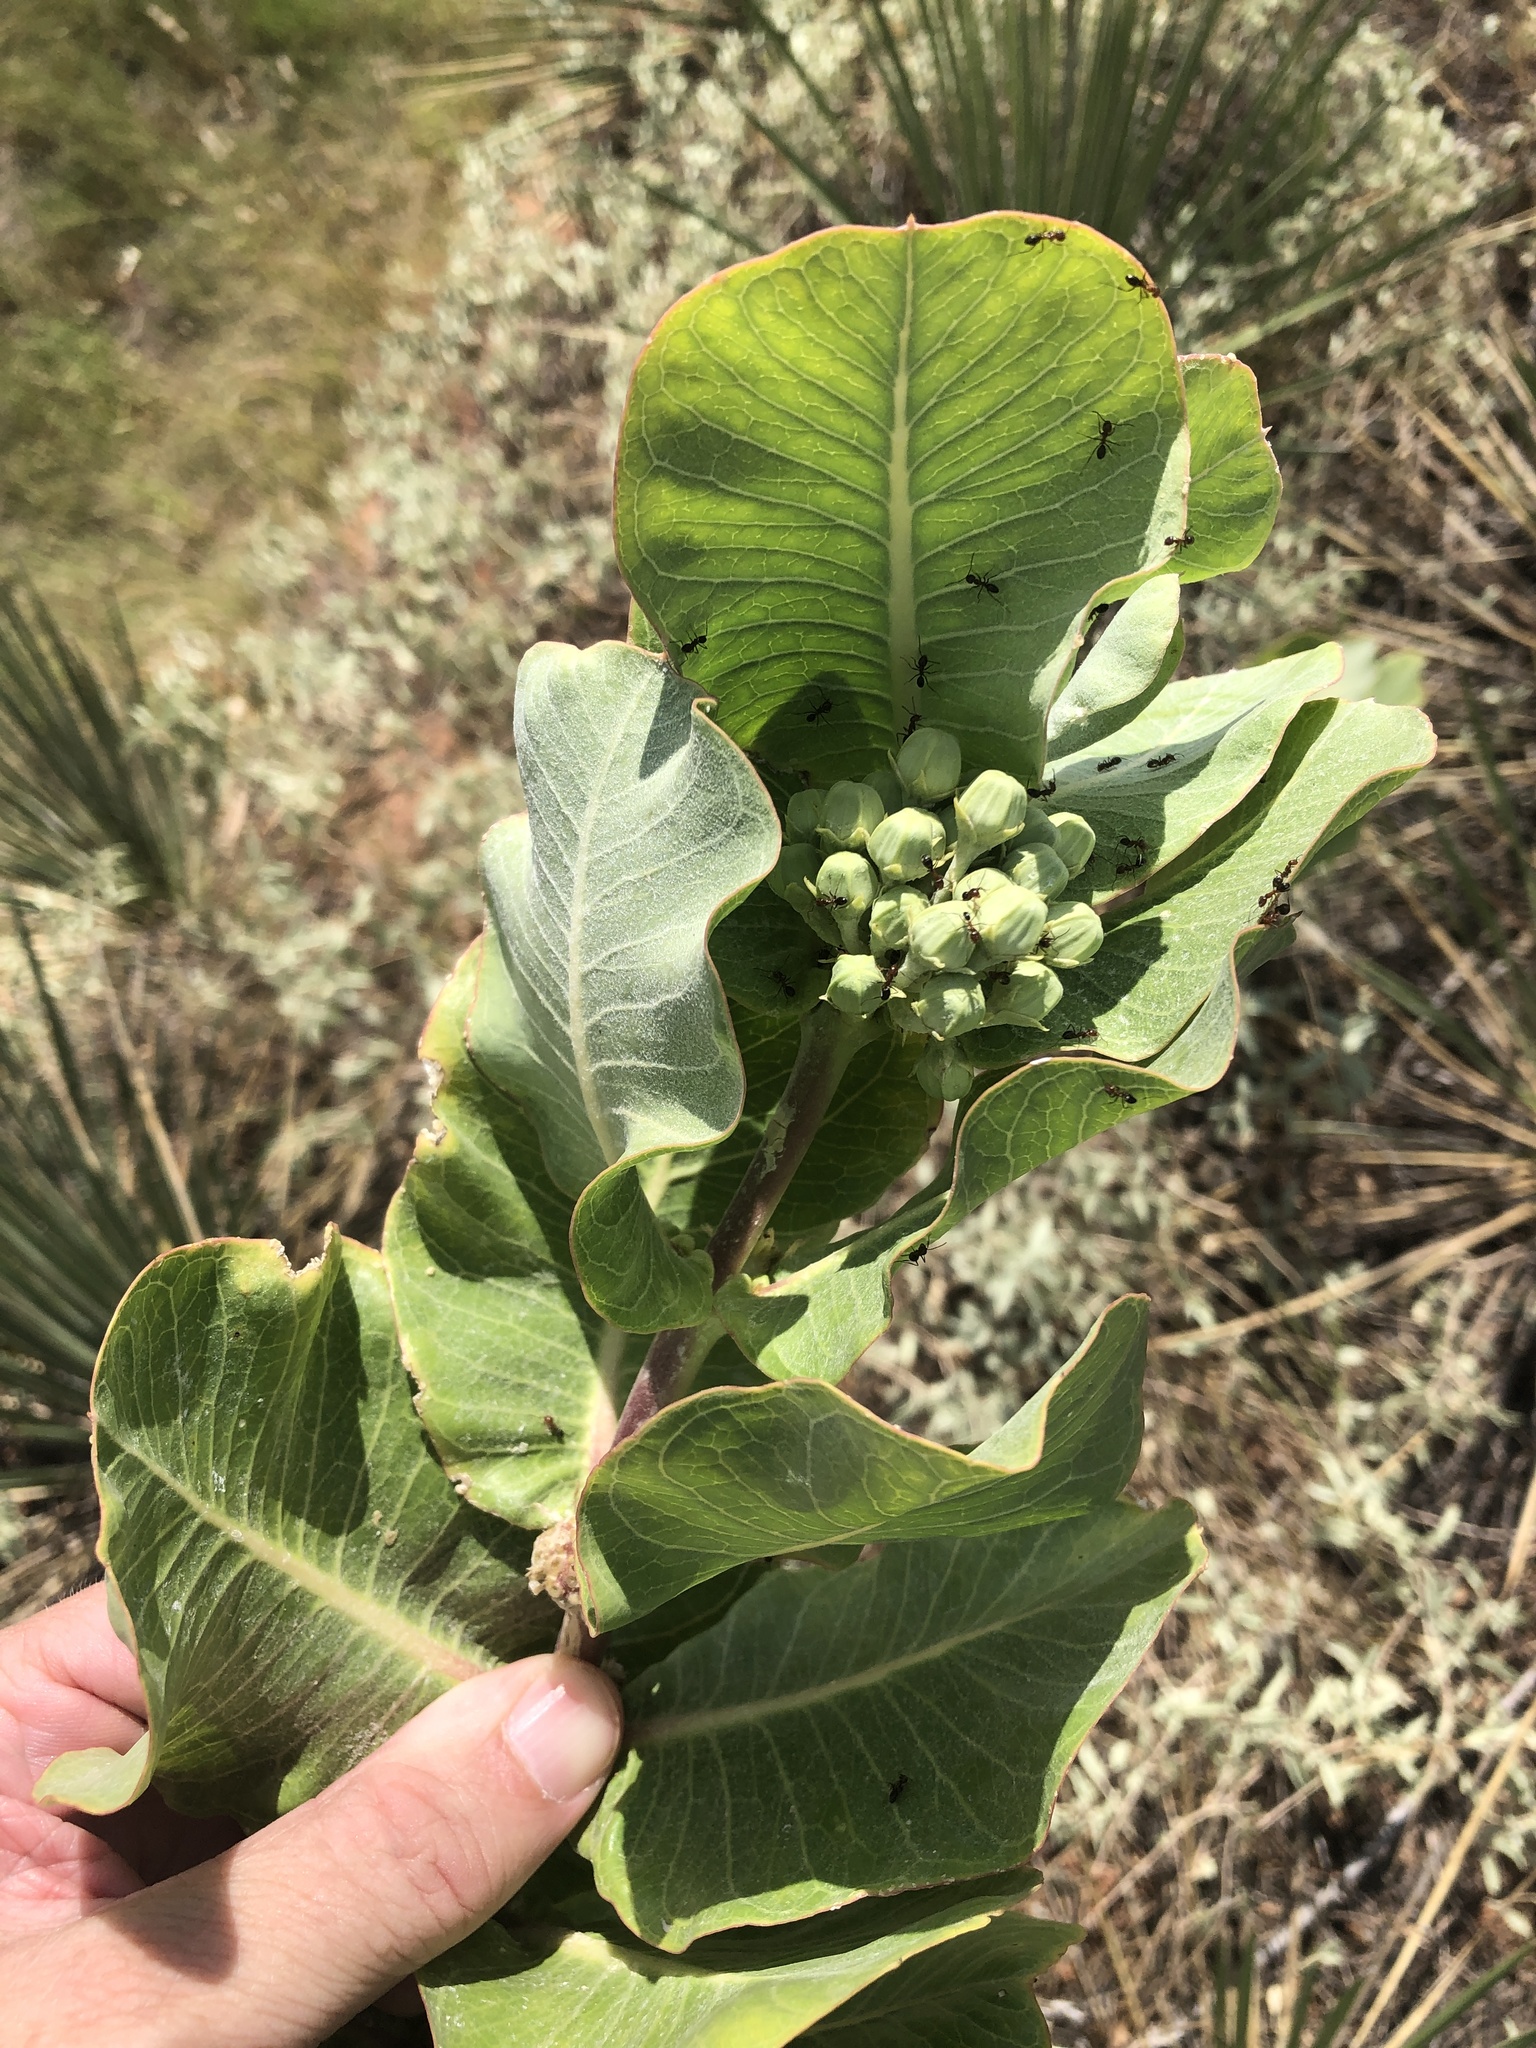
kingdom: Plantae
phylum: Tracheophyta
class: Magnoliopsida
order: Gentianales
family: Apocynaceae
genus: Asclepias
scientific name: Asclepias latifolia
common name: Broadleaf milkweed
